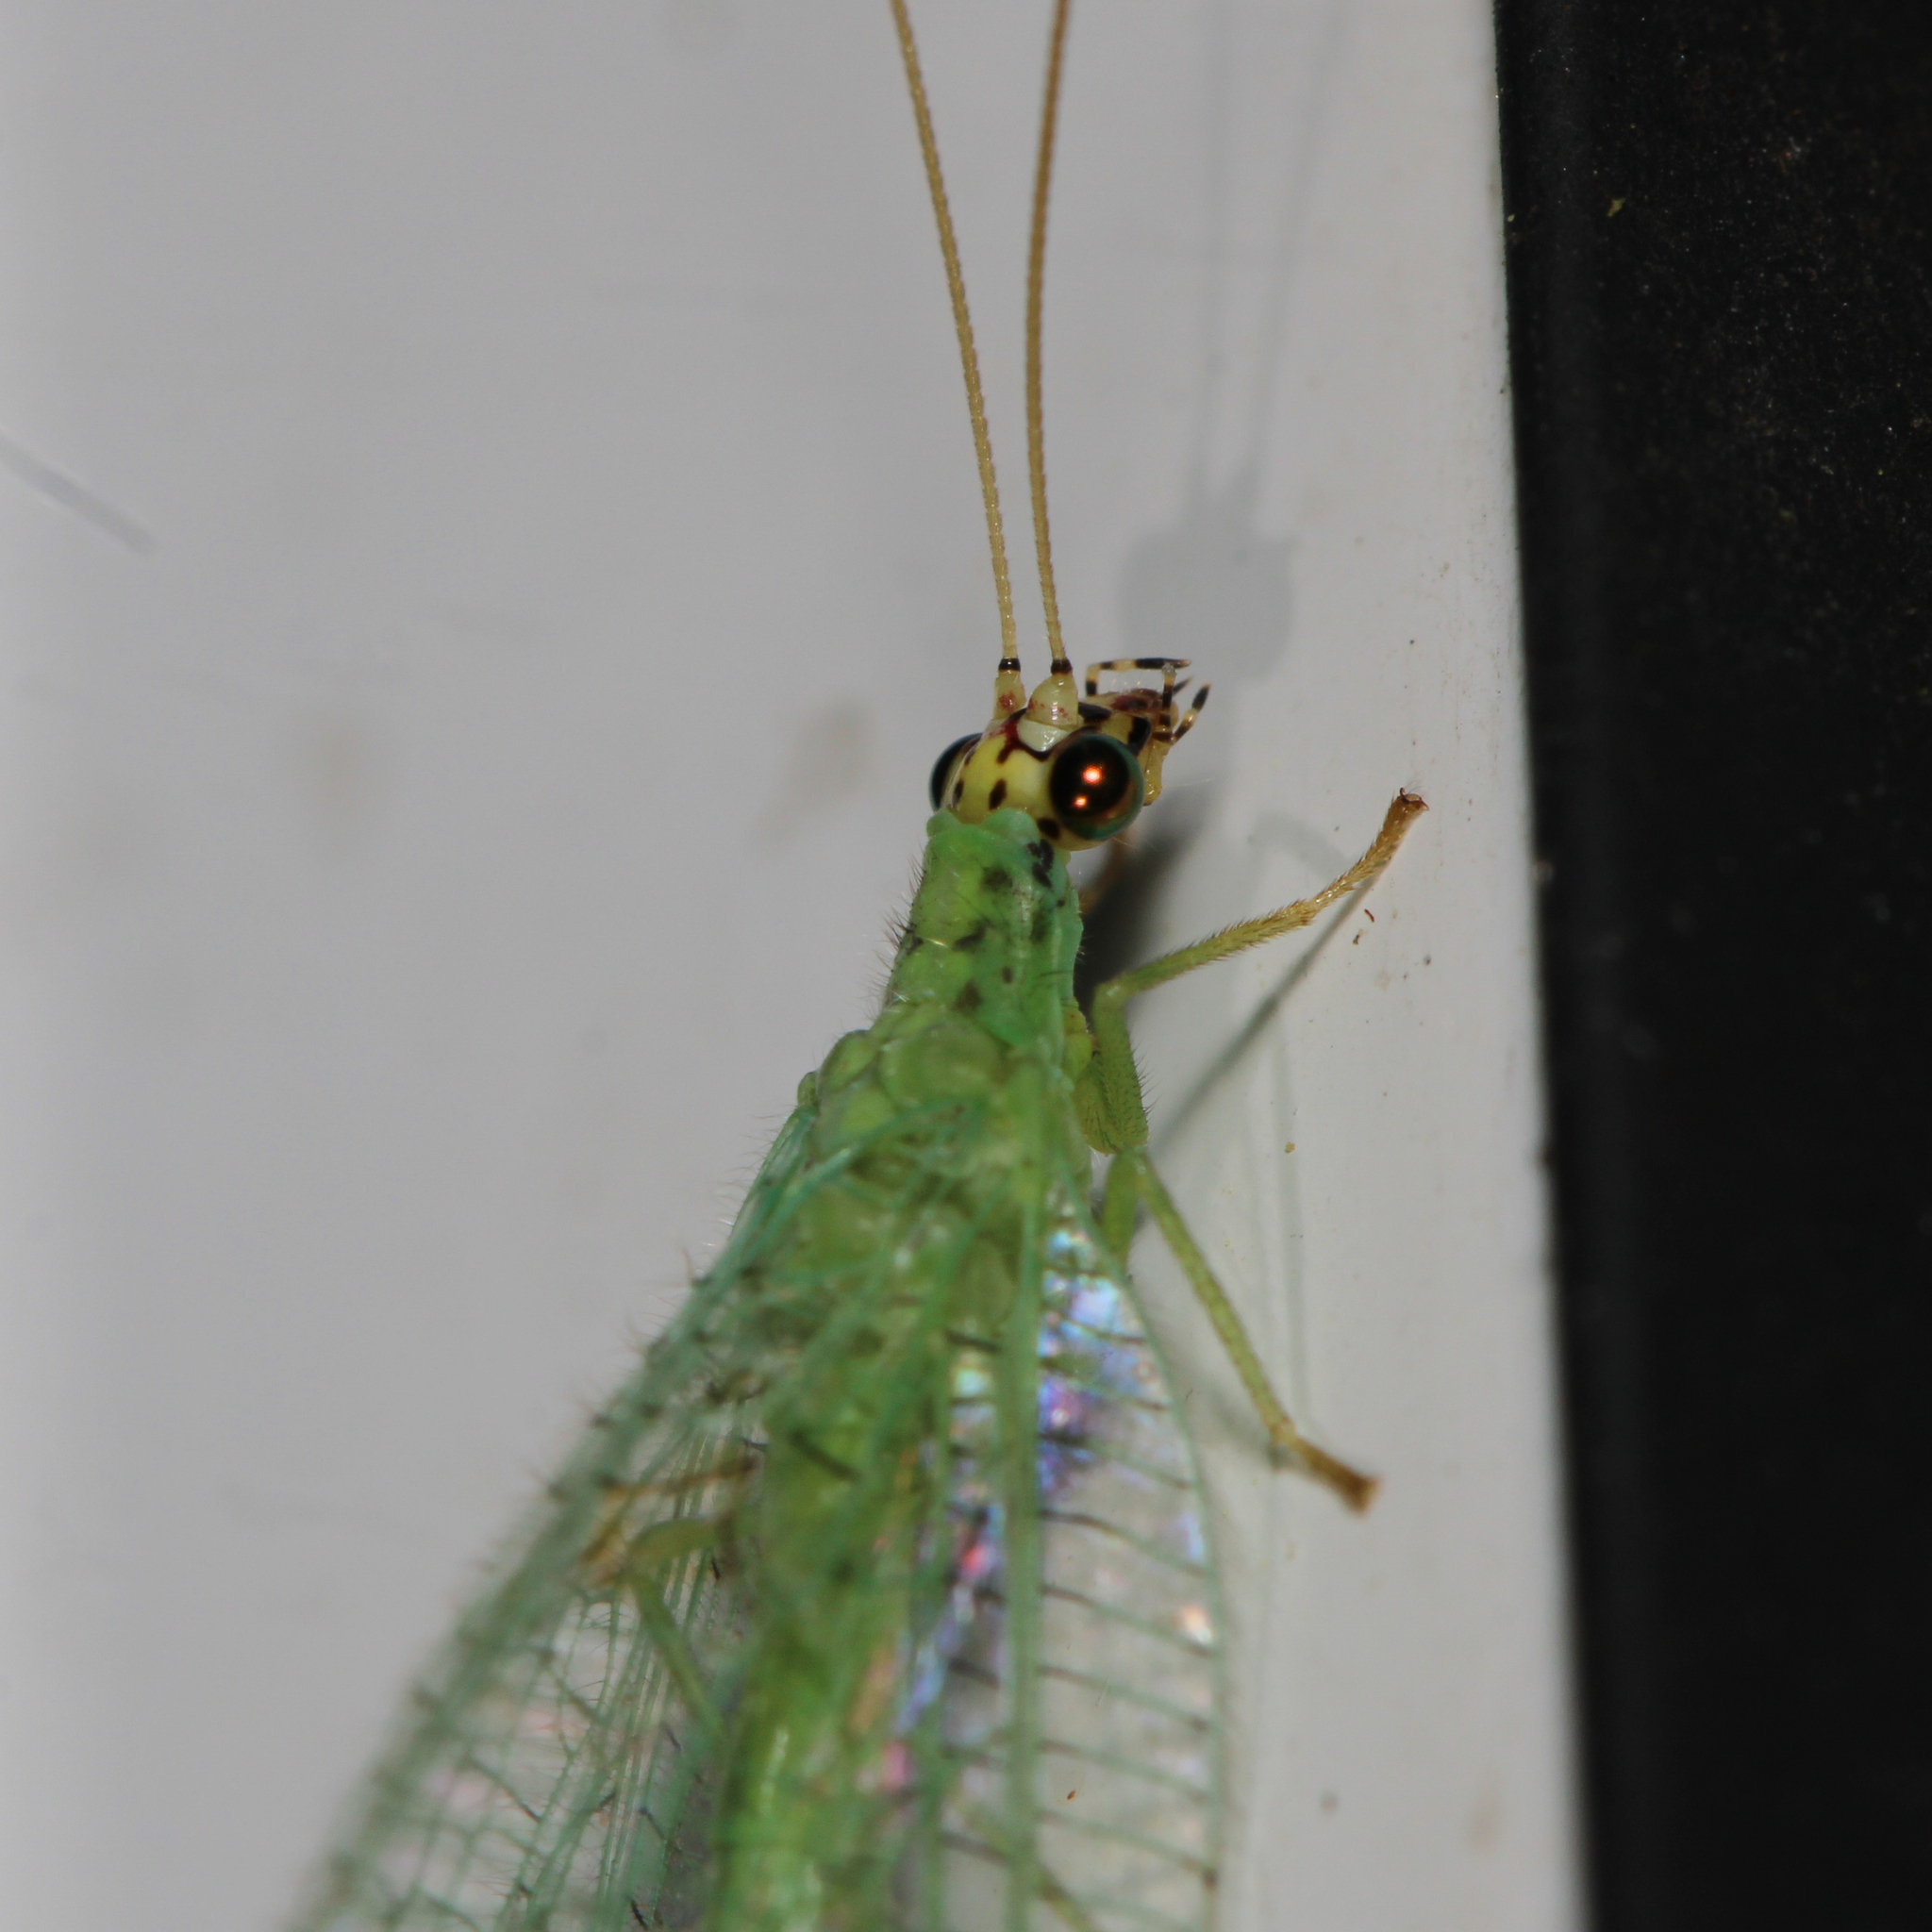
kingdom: Animalia
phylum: Arthropoda
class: Insecta
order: Neuroptera
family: Chrysopidae
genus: Chrysopa
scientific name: Chrysopa oculata
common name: Golden-eyed lacewing
